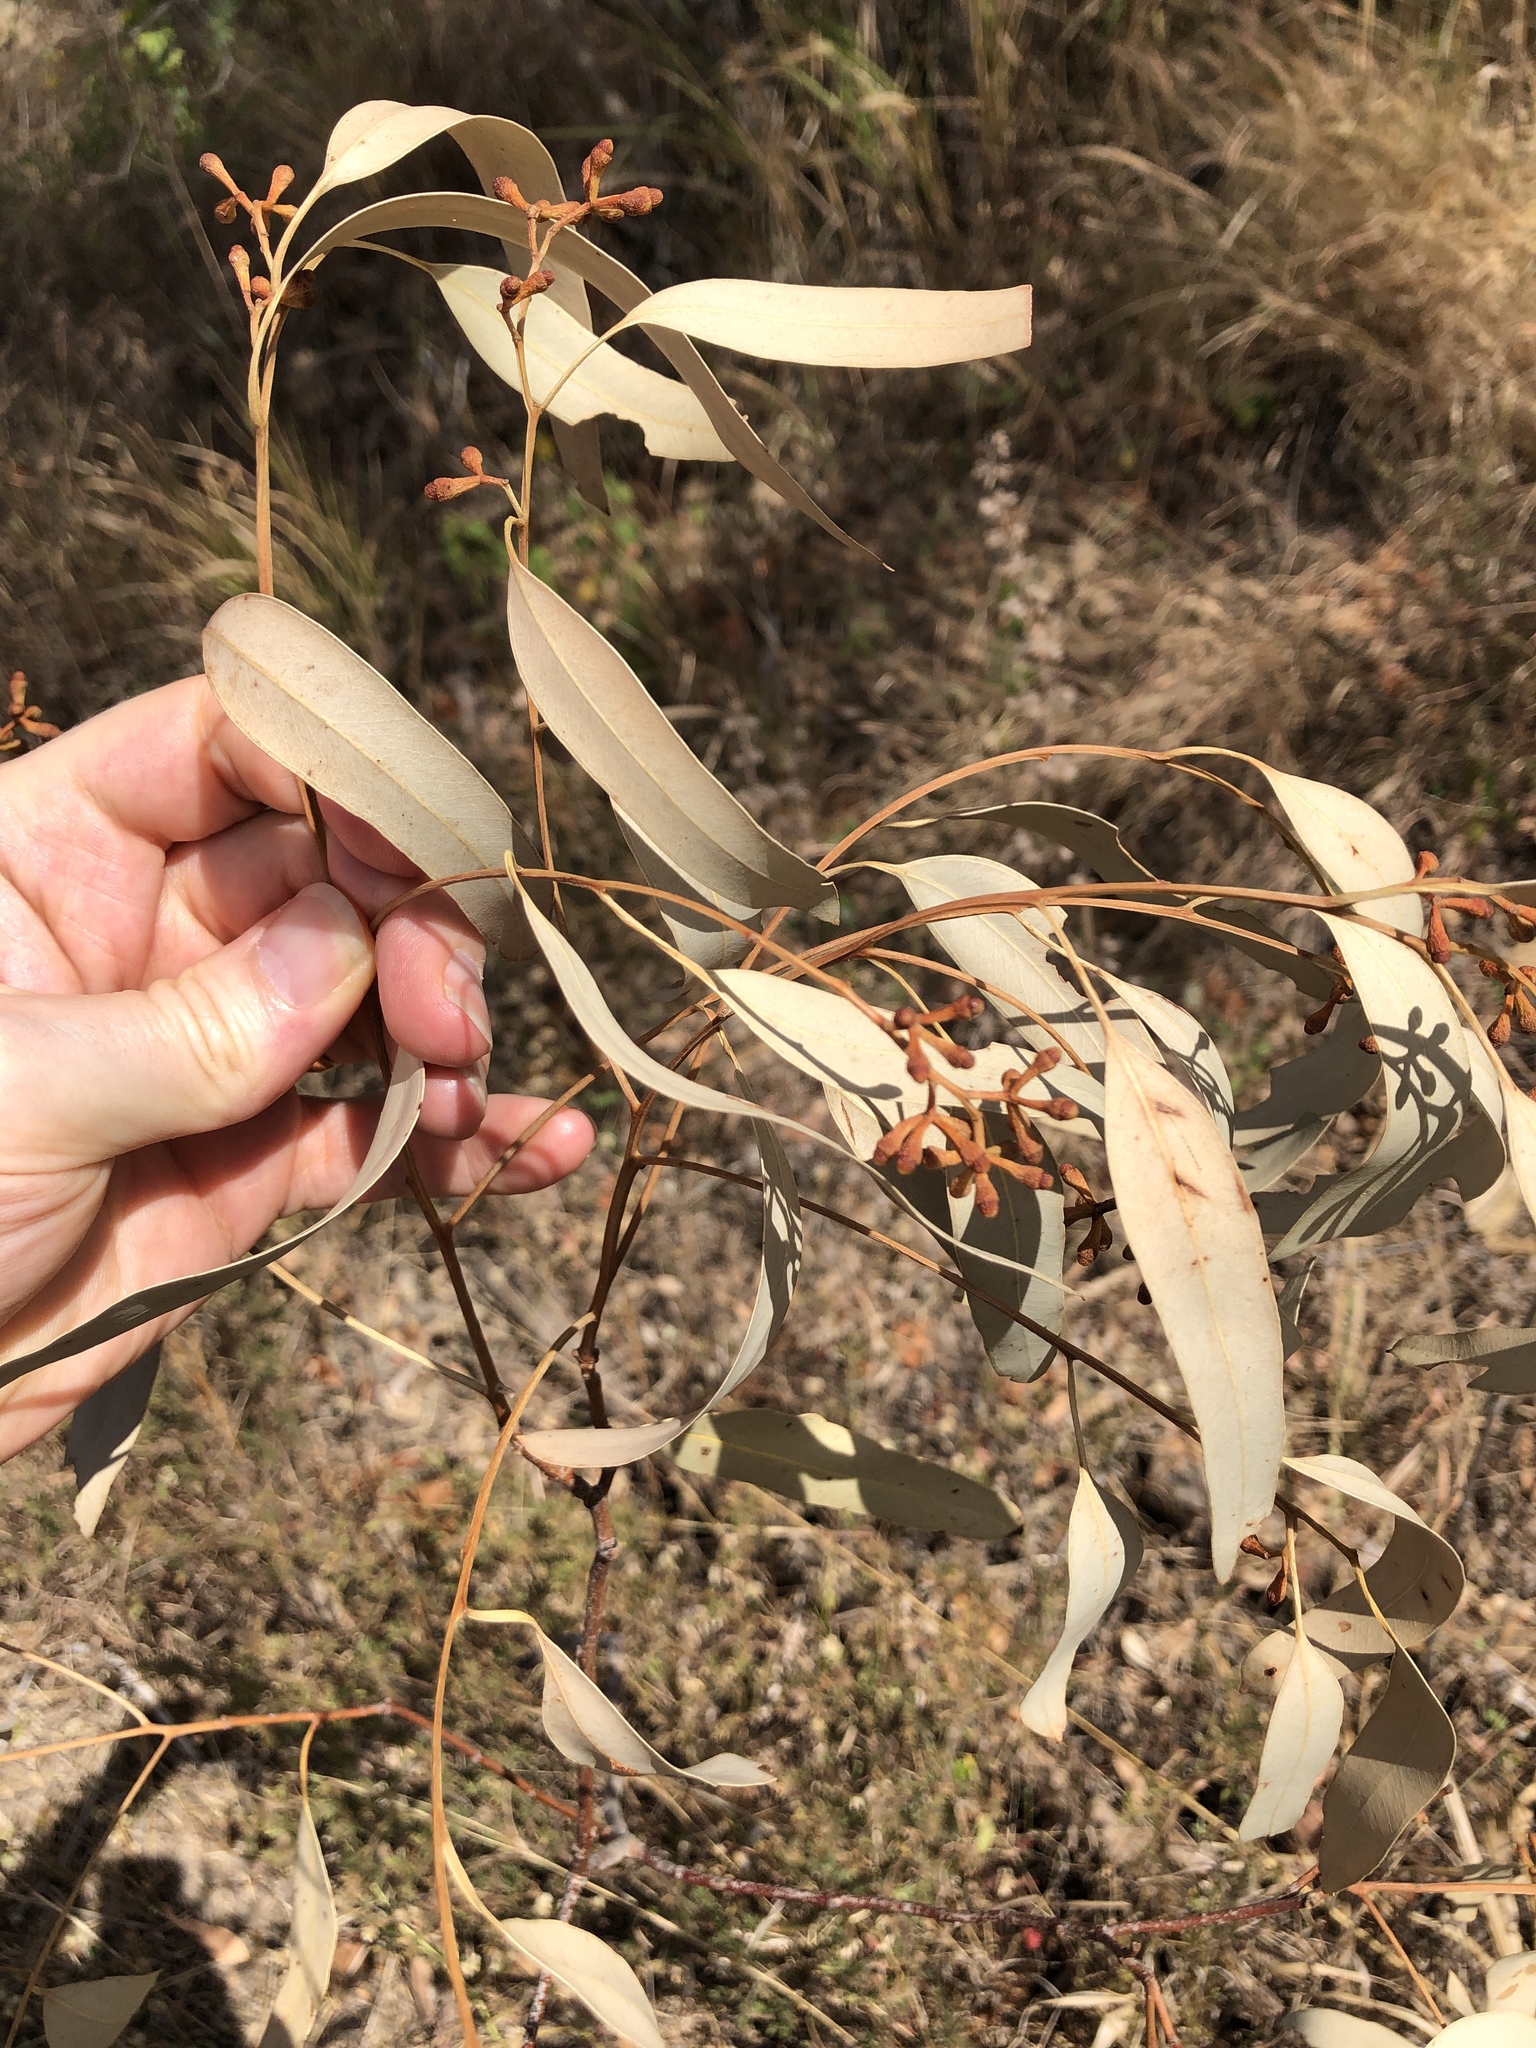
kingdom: Plantae
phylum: Tracheophyta
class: Magnoliopsida
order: Myrtales
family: Myrtaceae
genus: Eucalyptus
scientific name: Eucalyptus drepanophylla
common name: Queensland grey ironbark
